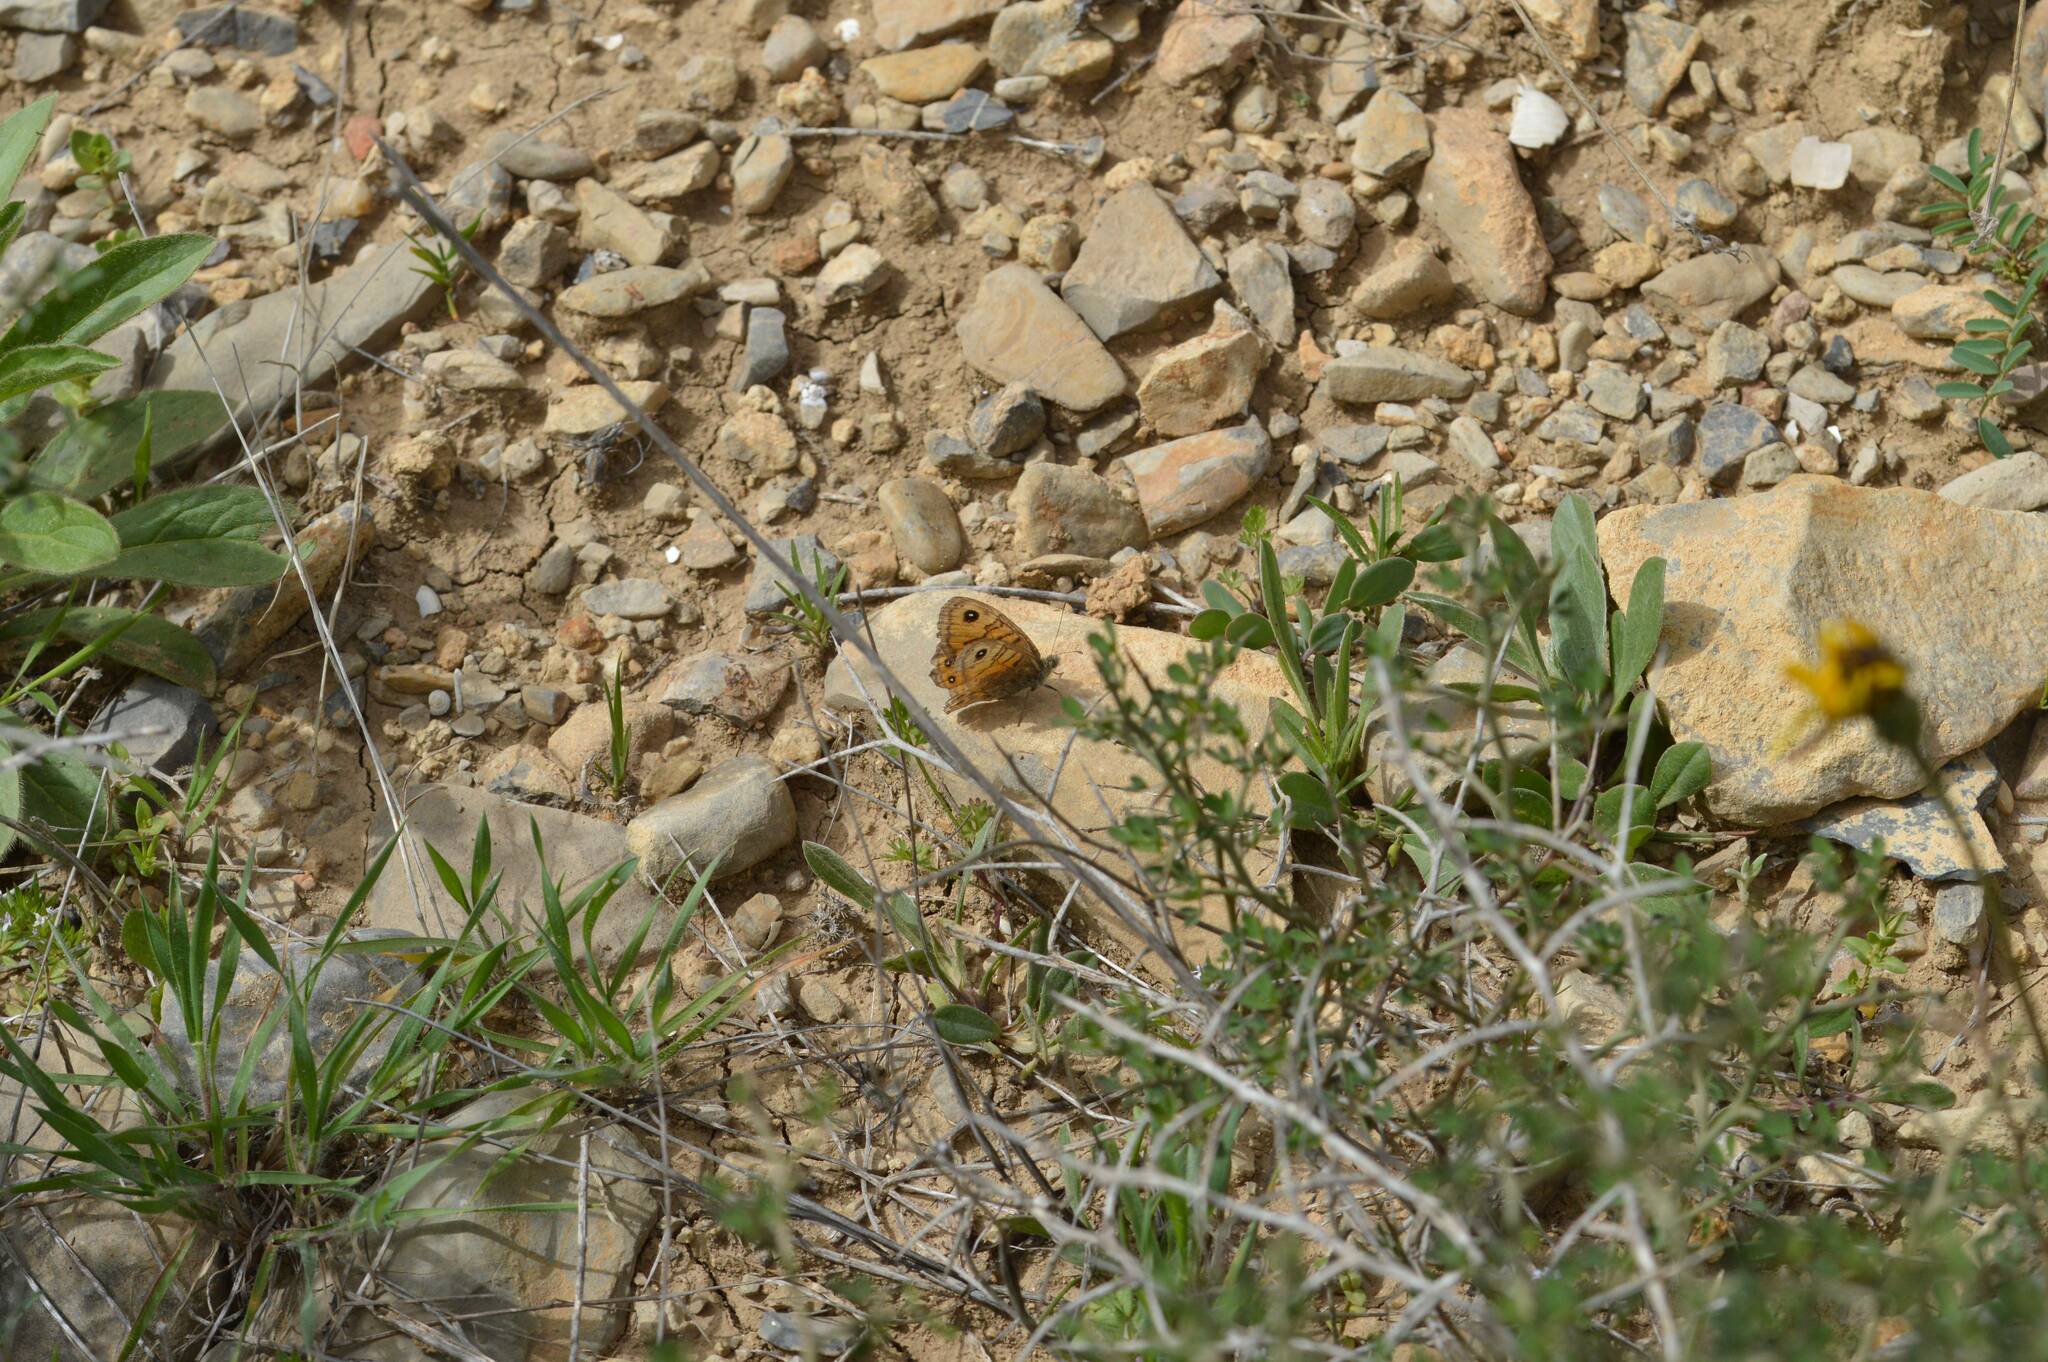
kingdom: Animalia
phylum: Arthropoda
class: Insecta
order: Lepidoptera
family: Nymphalidae
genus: Pararge
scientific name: Pararge Lasiommata megera
